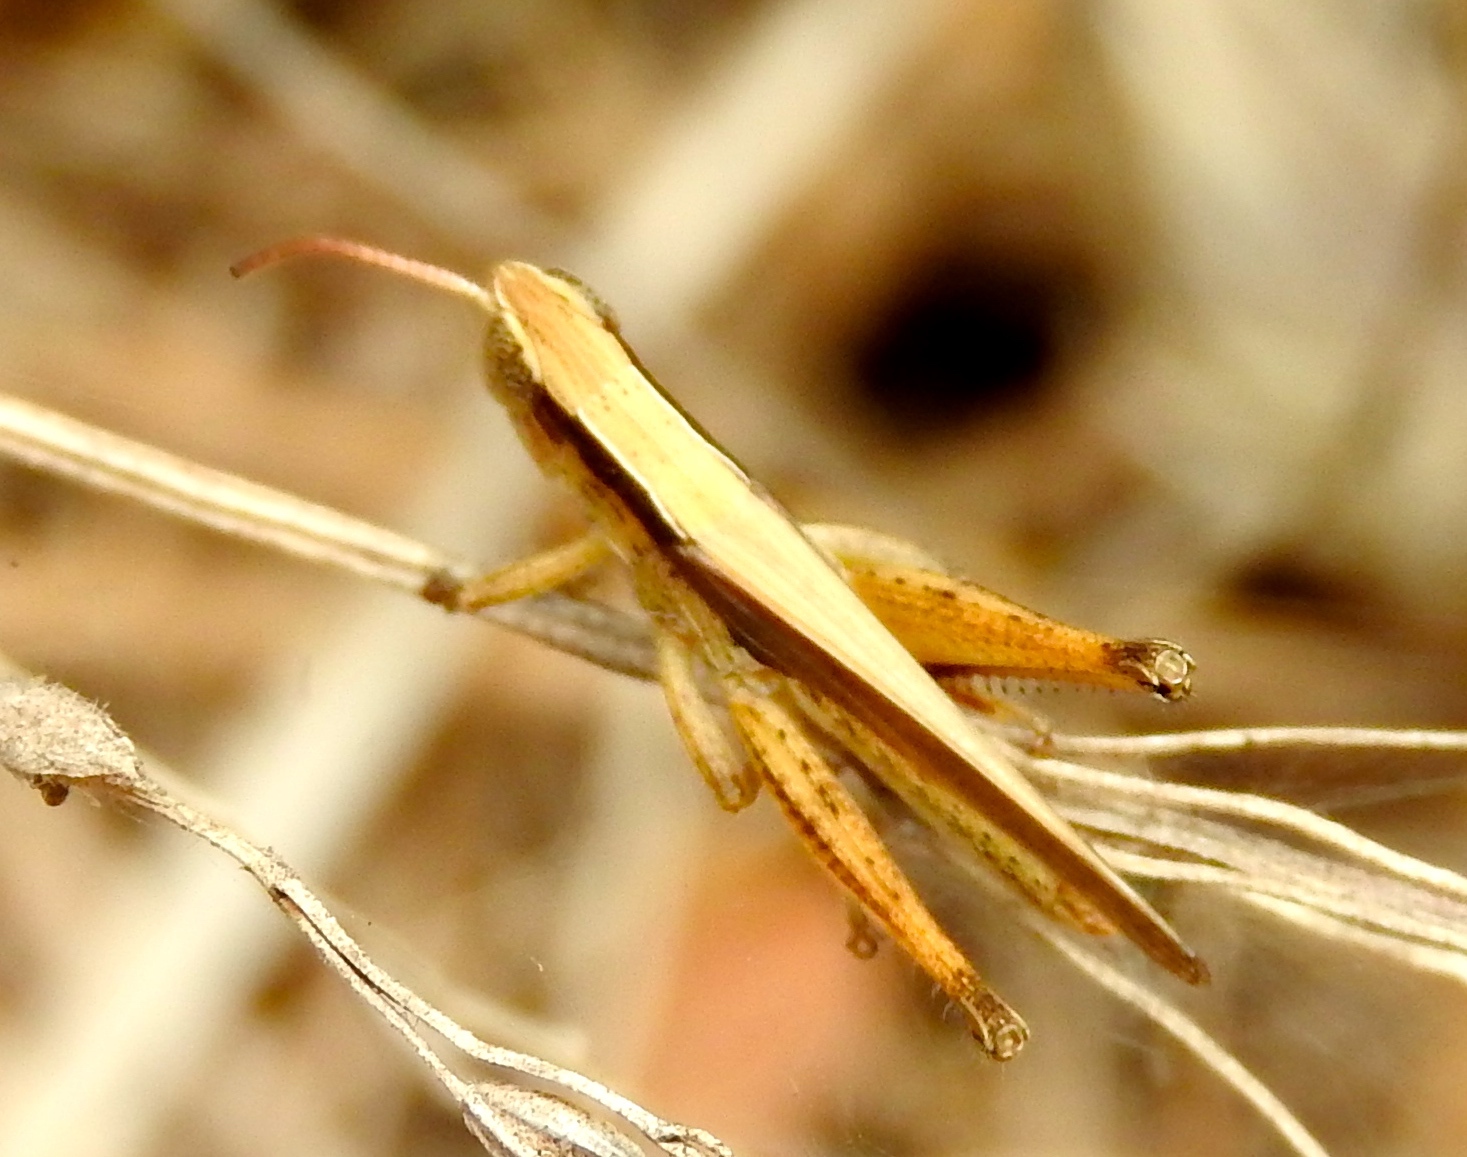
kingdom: Animalia
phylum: Arthropoda
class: Insecta
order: Orthoptera
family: Acrididae
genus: Dichromorpha
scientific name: Dichromorpha prominula
